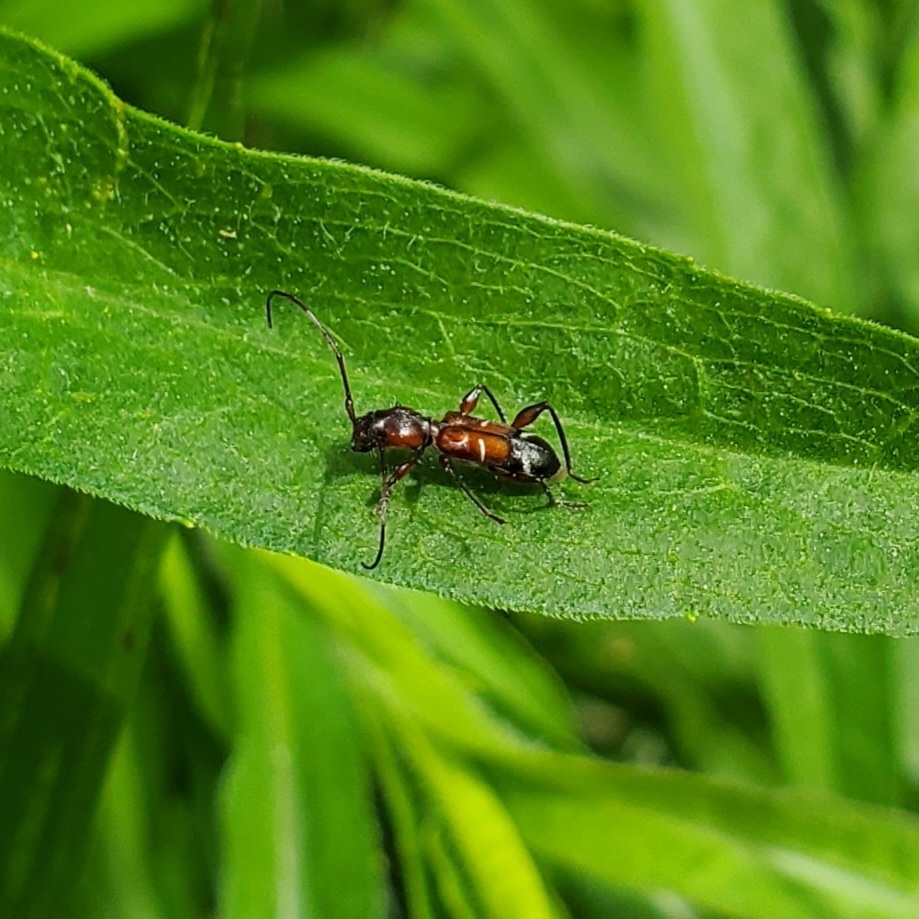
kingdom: Animalia
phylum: Arthropoda
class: Insecta
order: Coleoptera
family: Cerambycidae
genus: Euderces
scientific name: Euderces pini
